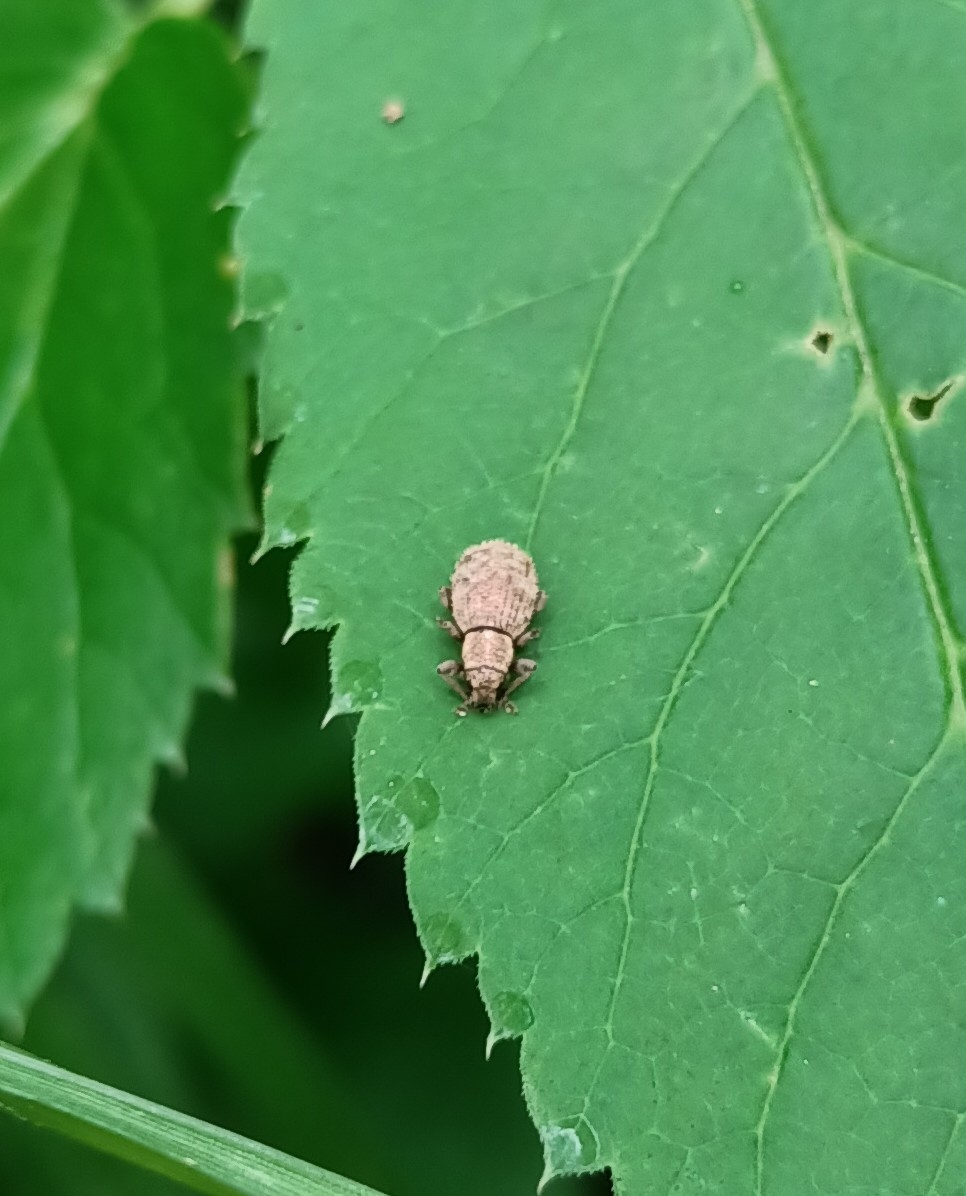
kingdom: Animalia
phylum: Arthropoda
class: Insecta
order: Coleoptera
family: Curculionidae
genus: Sciaphilus
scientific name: Sciaphilus asperatus
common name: Weevil
